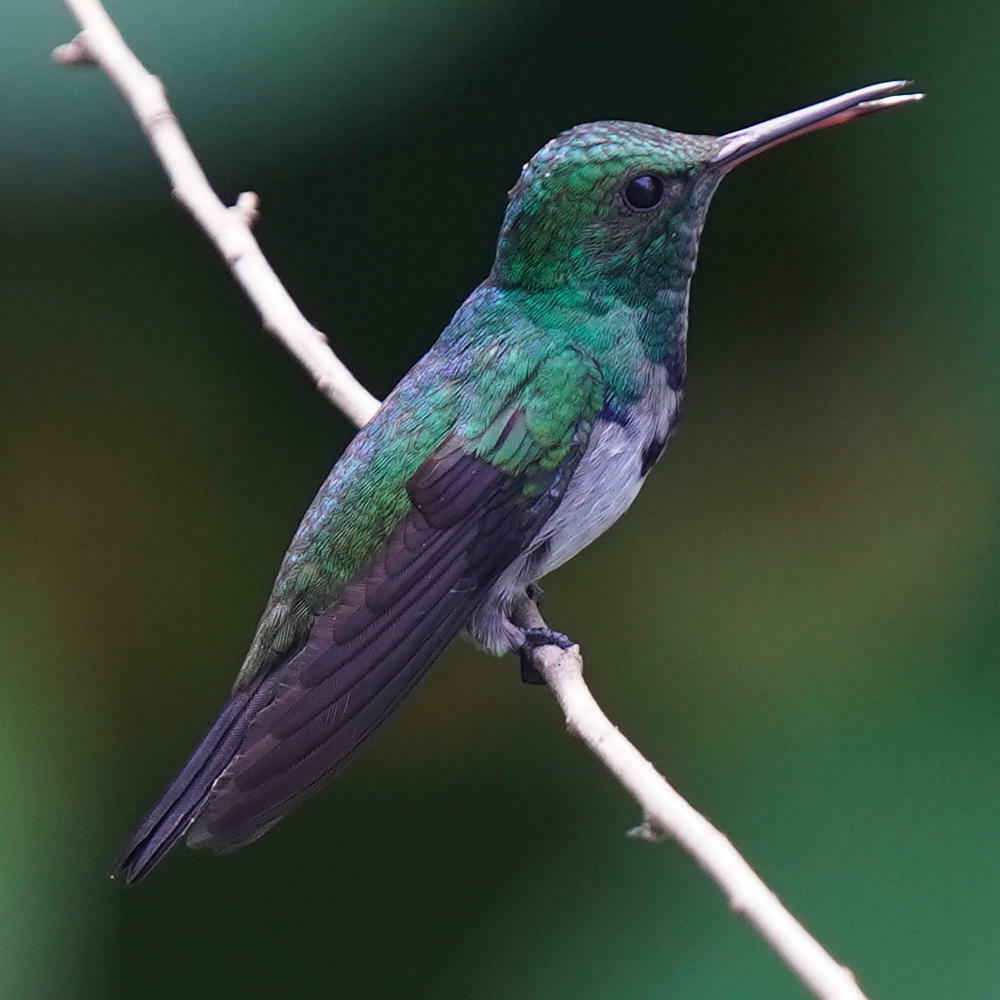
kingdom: Animalia
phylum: Chordata
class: Aves
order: Apodiformes
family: Trochilidae
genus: Polyerata
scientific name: Polyerata amabilis
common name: Blue-chested hummingbird
